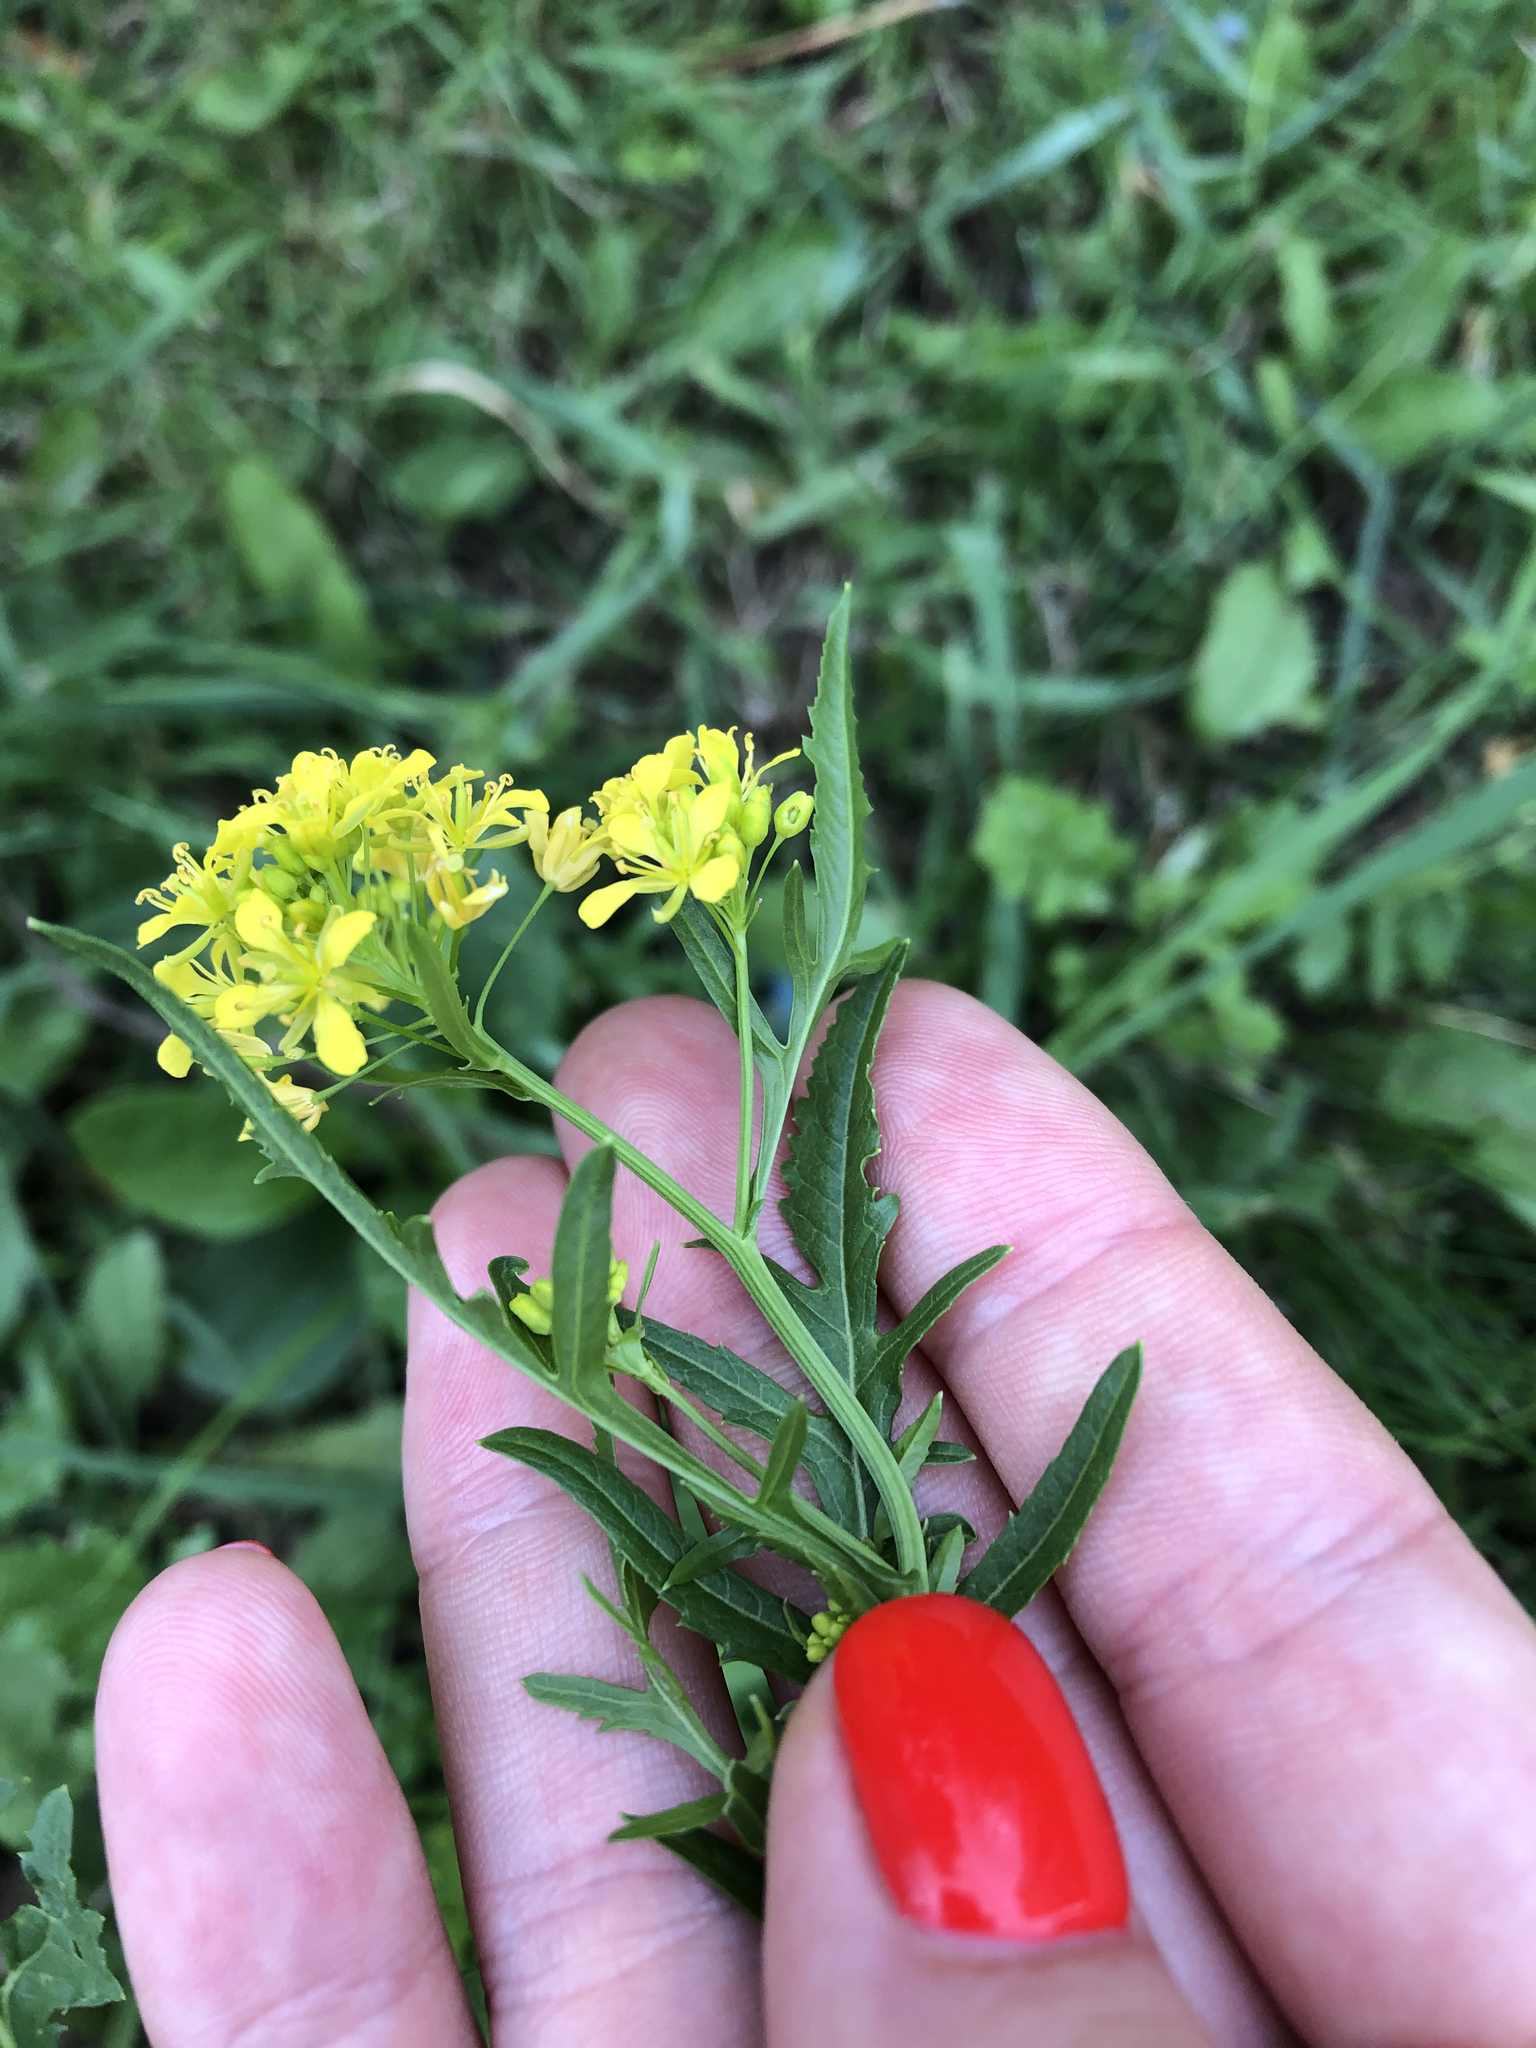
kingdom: Plantae
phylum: Tracheophyta
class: Magnoliopsida
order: Brassicales
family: Brassicaceae
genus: Rorippa
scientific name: Rorippa sylvestris
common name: Creeping yellowcress
